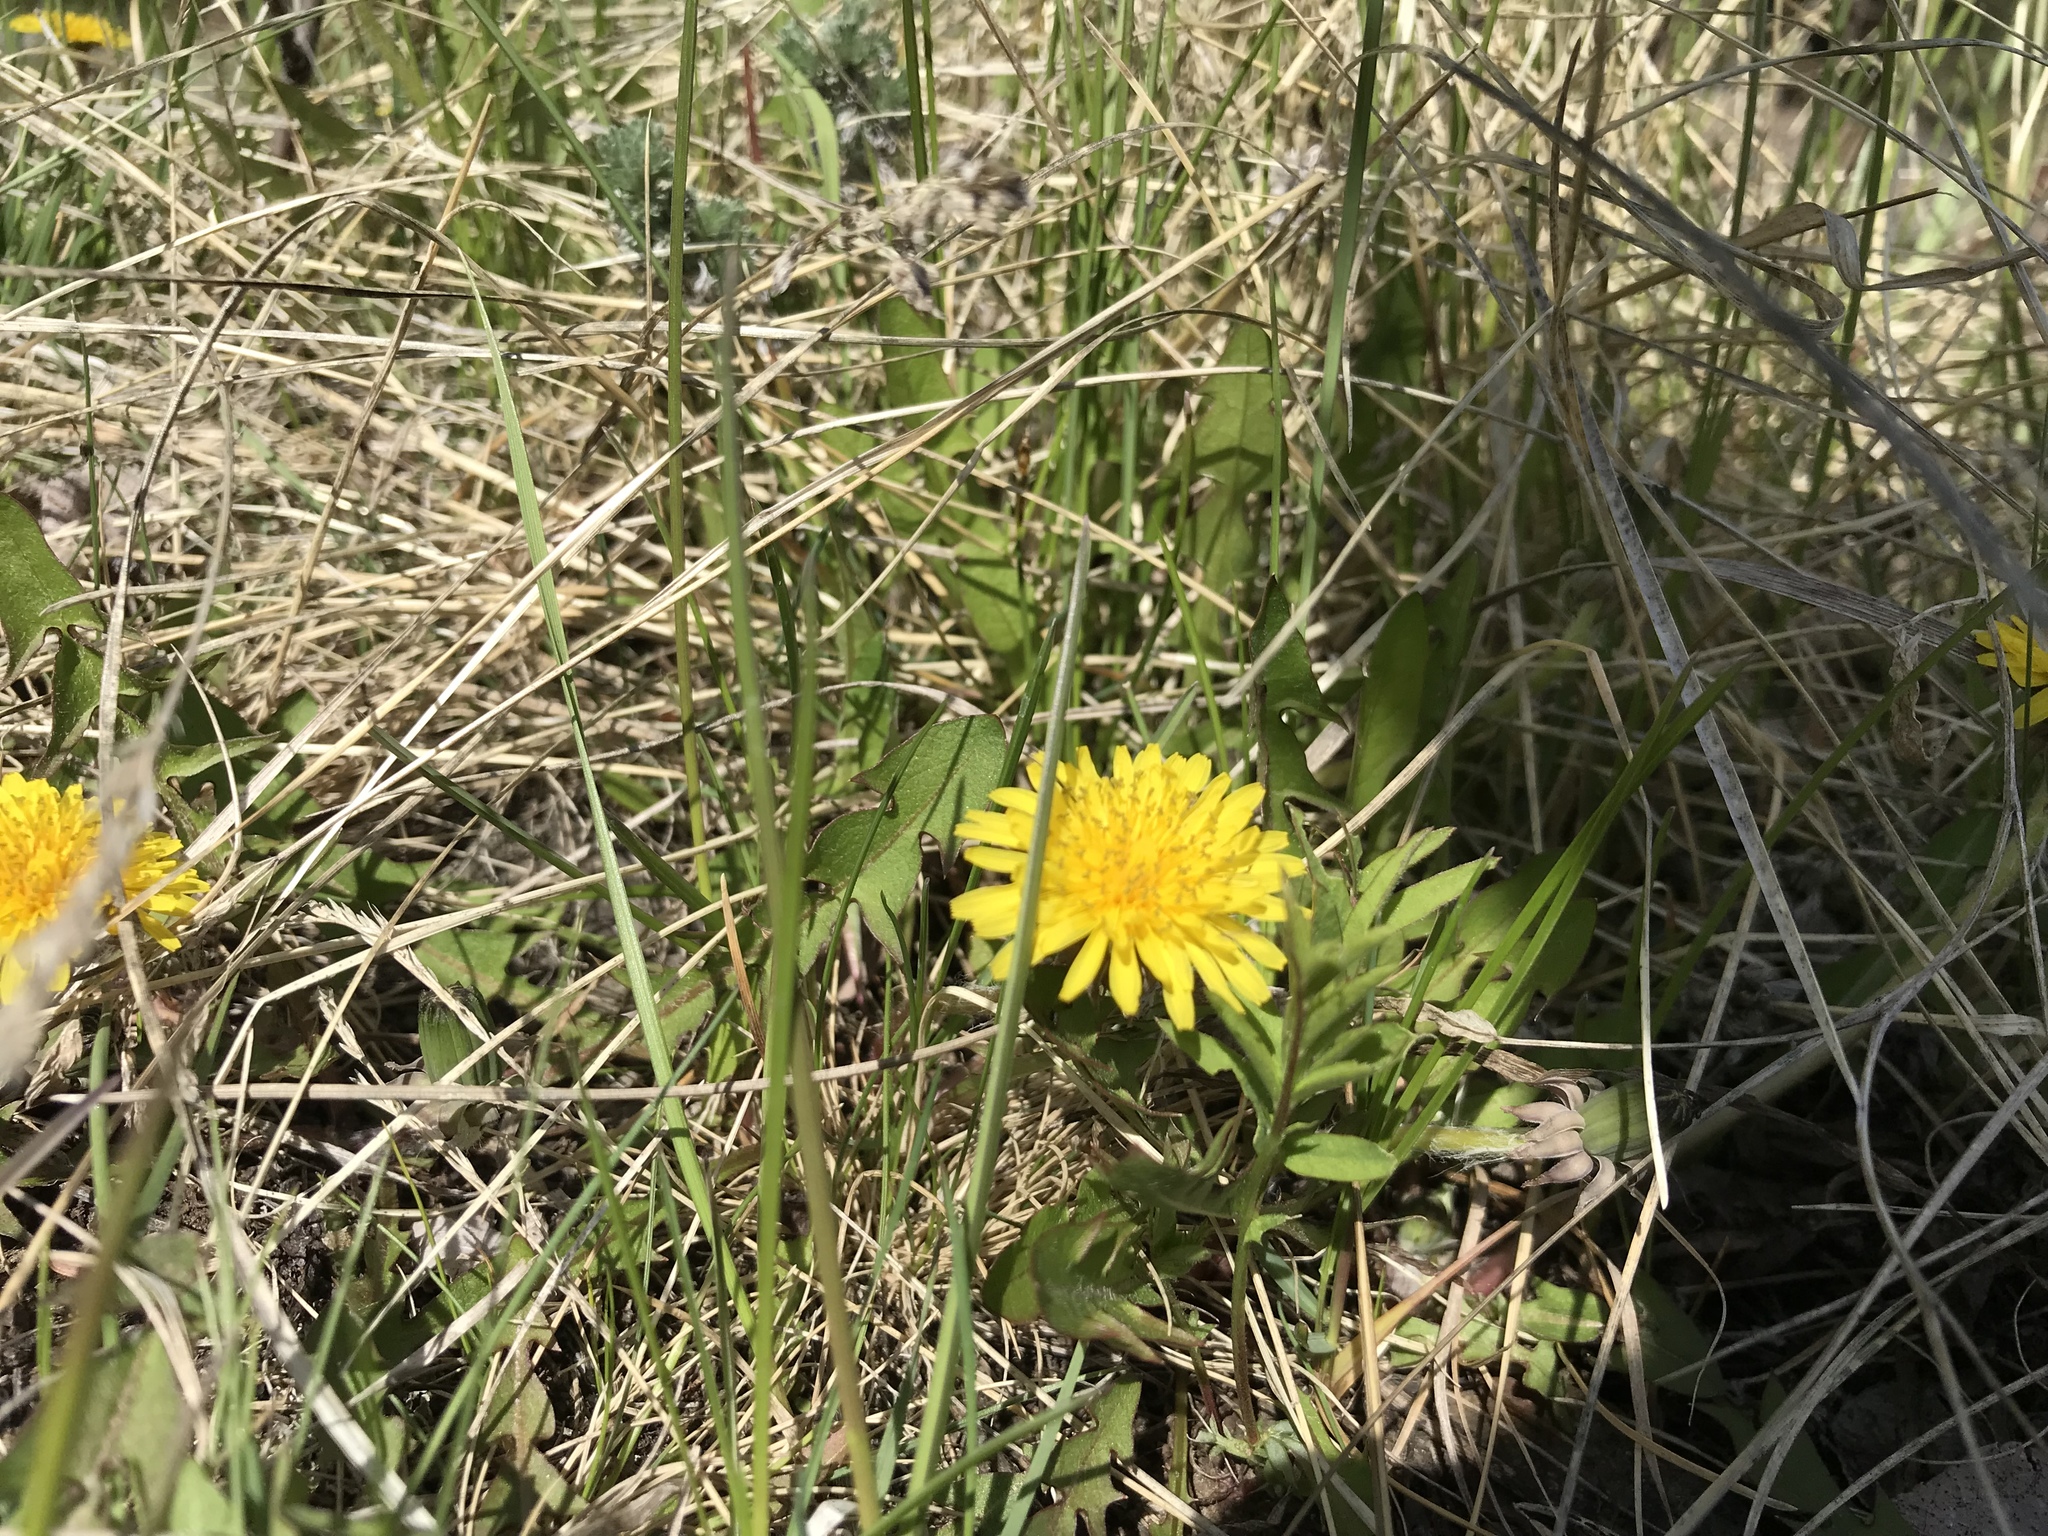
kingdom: Plantae
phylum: Tracheophyta
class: Magnoliopsida
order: Asterales
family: Asteraceae
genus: Taraxacum
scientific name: Taraxacum officinale
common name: Common dandelion
